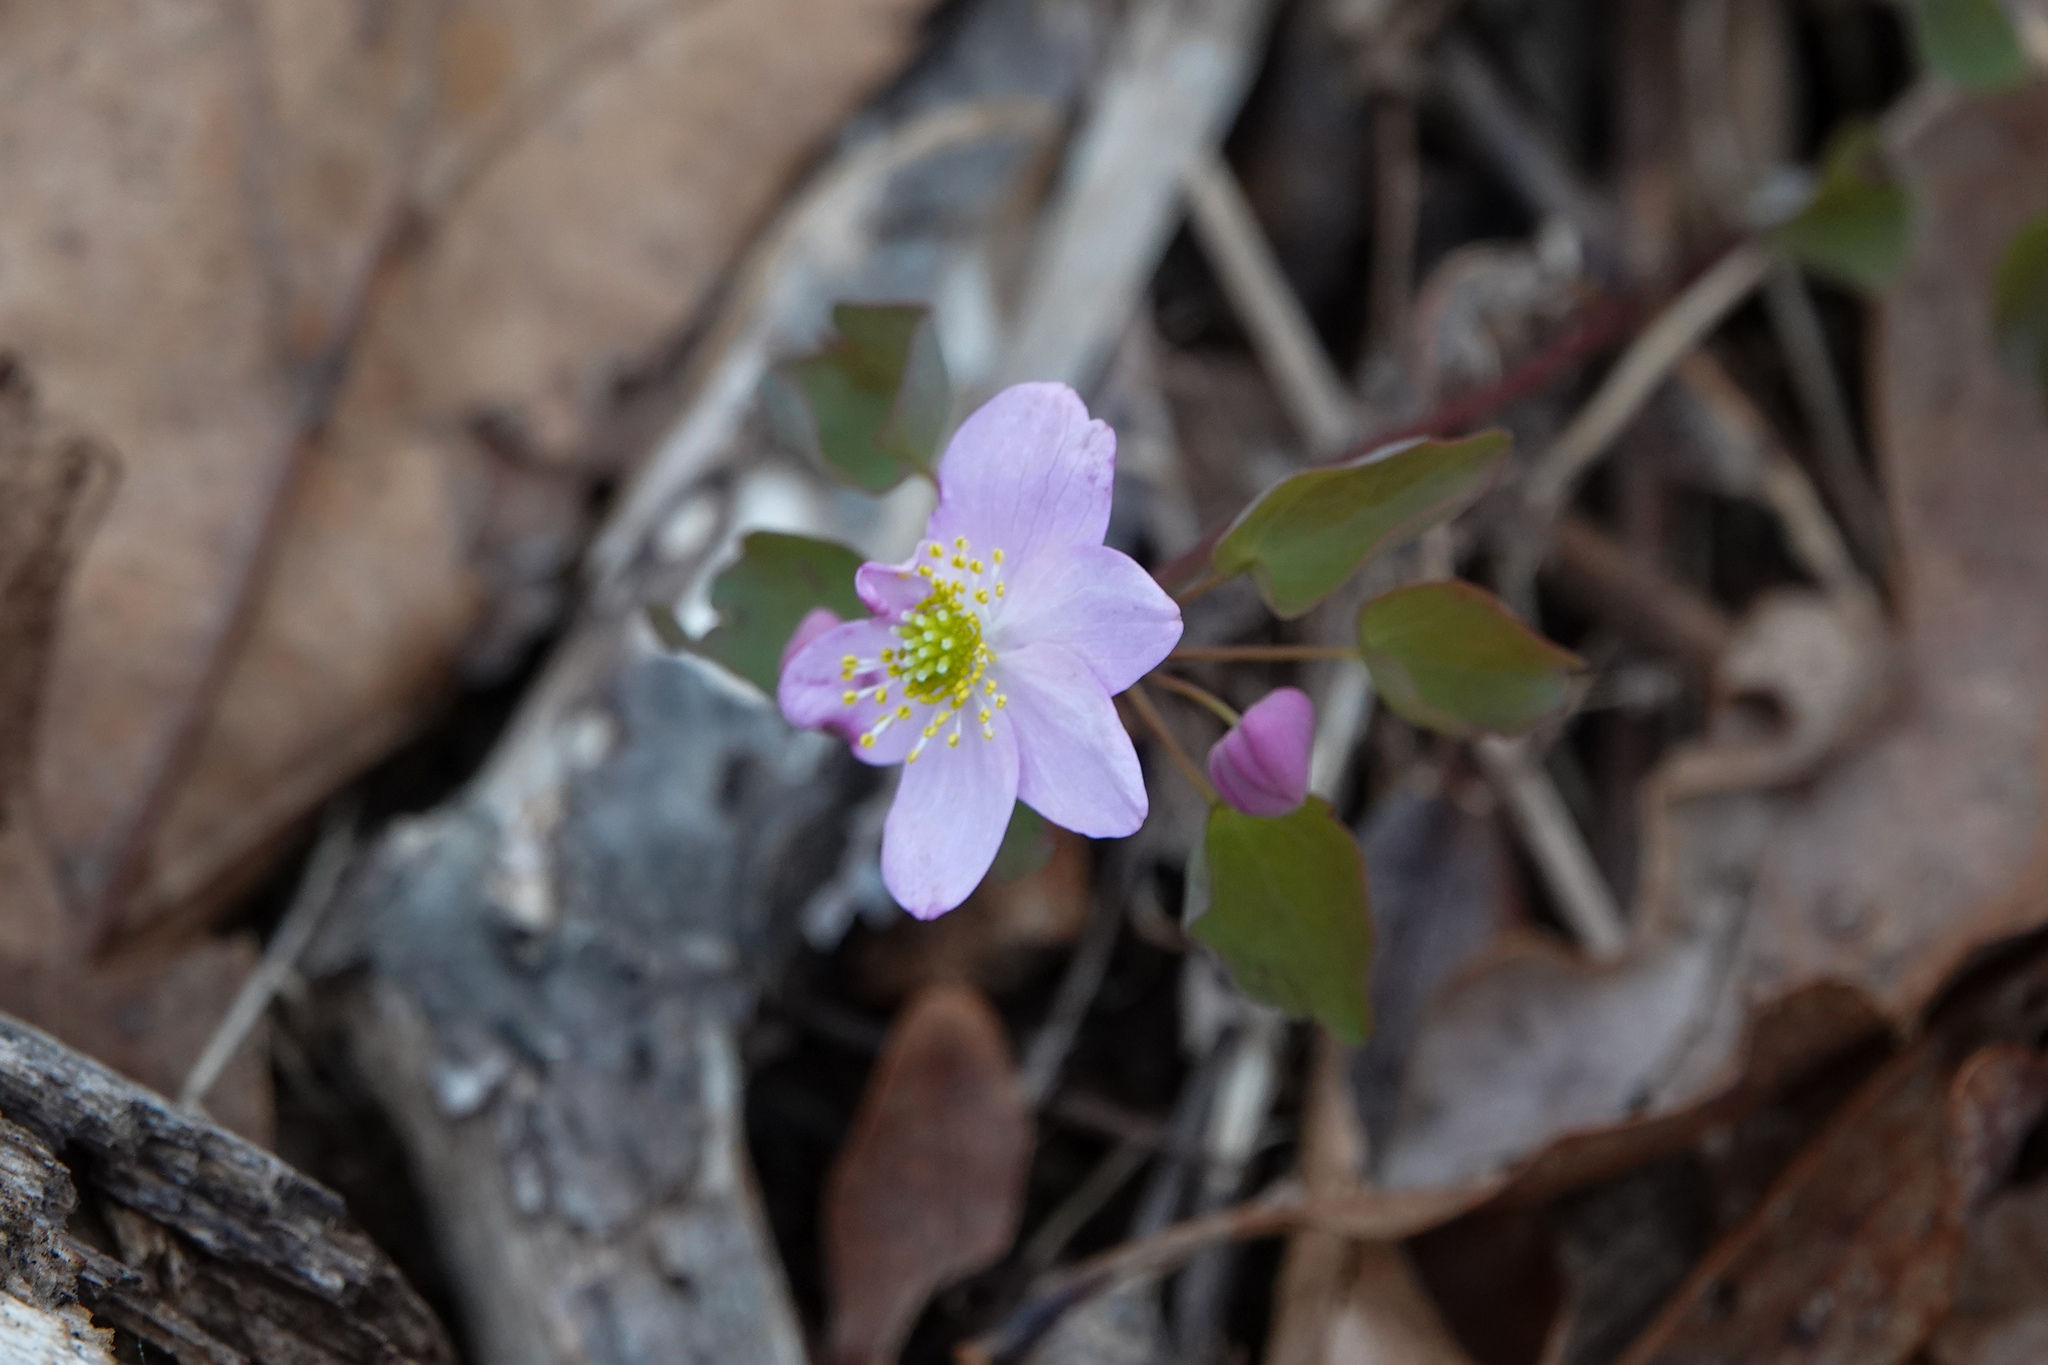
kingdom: Plantae
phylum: Tracheophyta
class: Magnoliopsida
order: Ranunculales
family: Ranunculaceae
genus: Thalictrum
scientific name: Thalictrum thalictroides
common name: Rue-anemone
